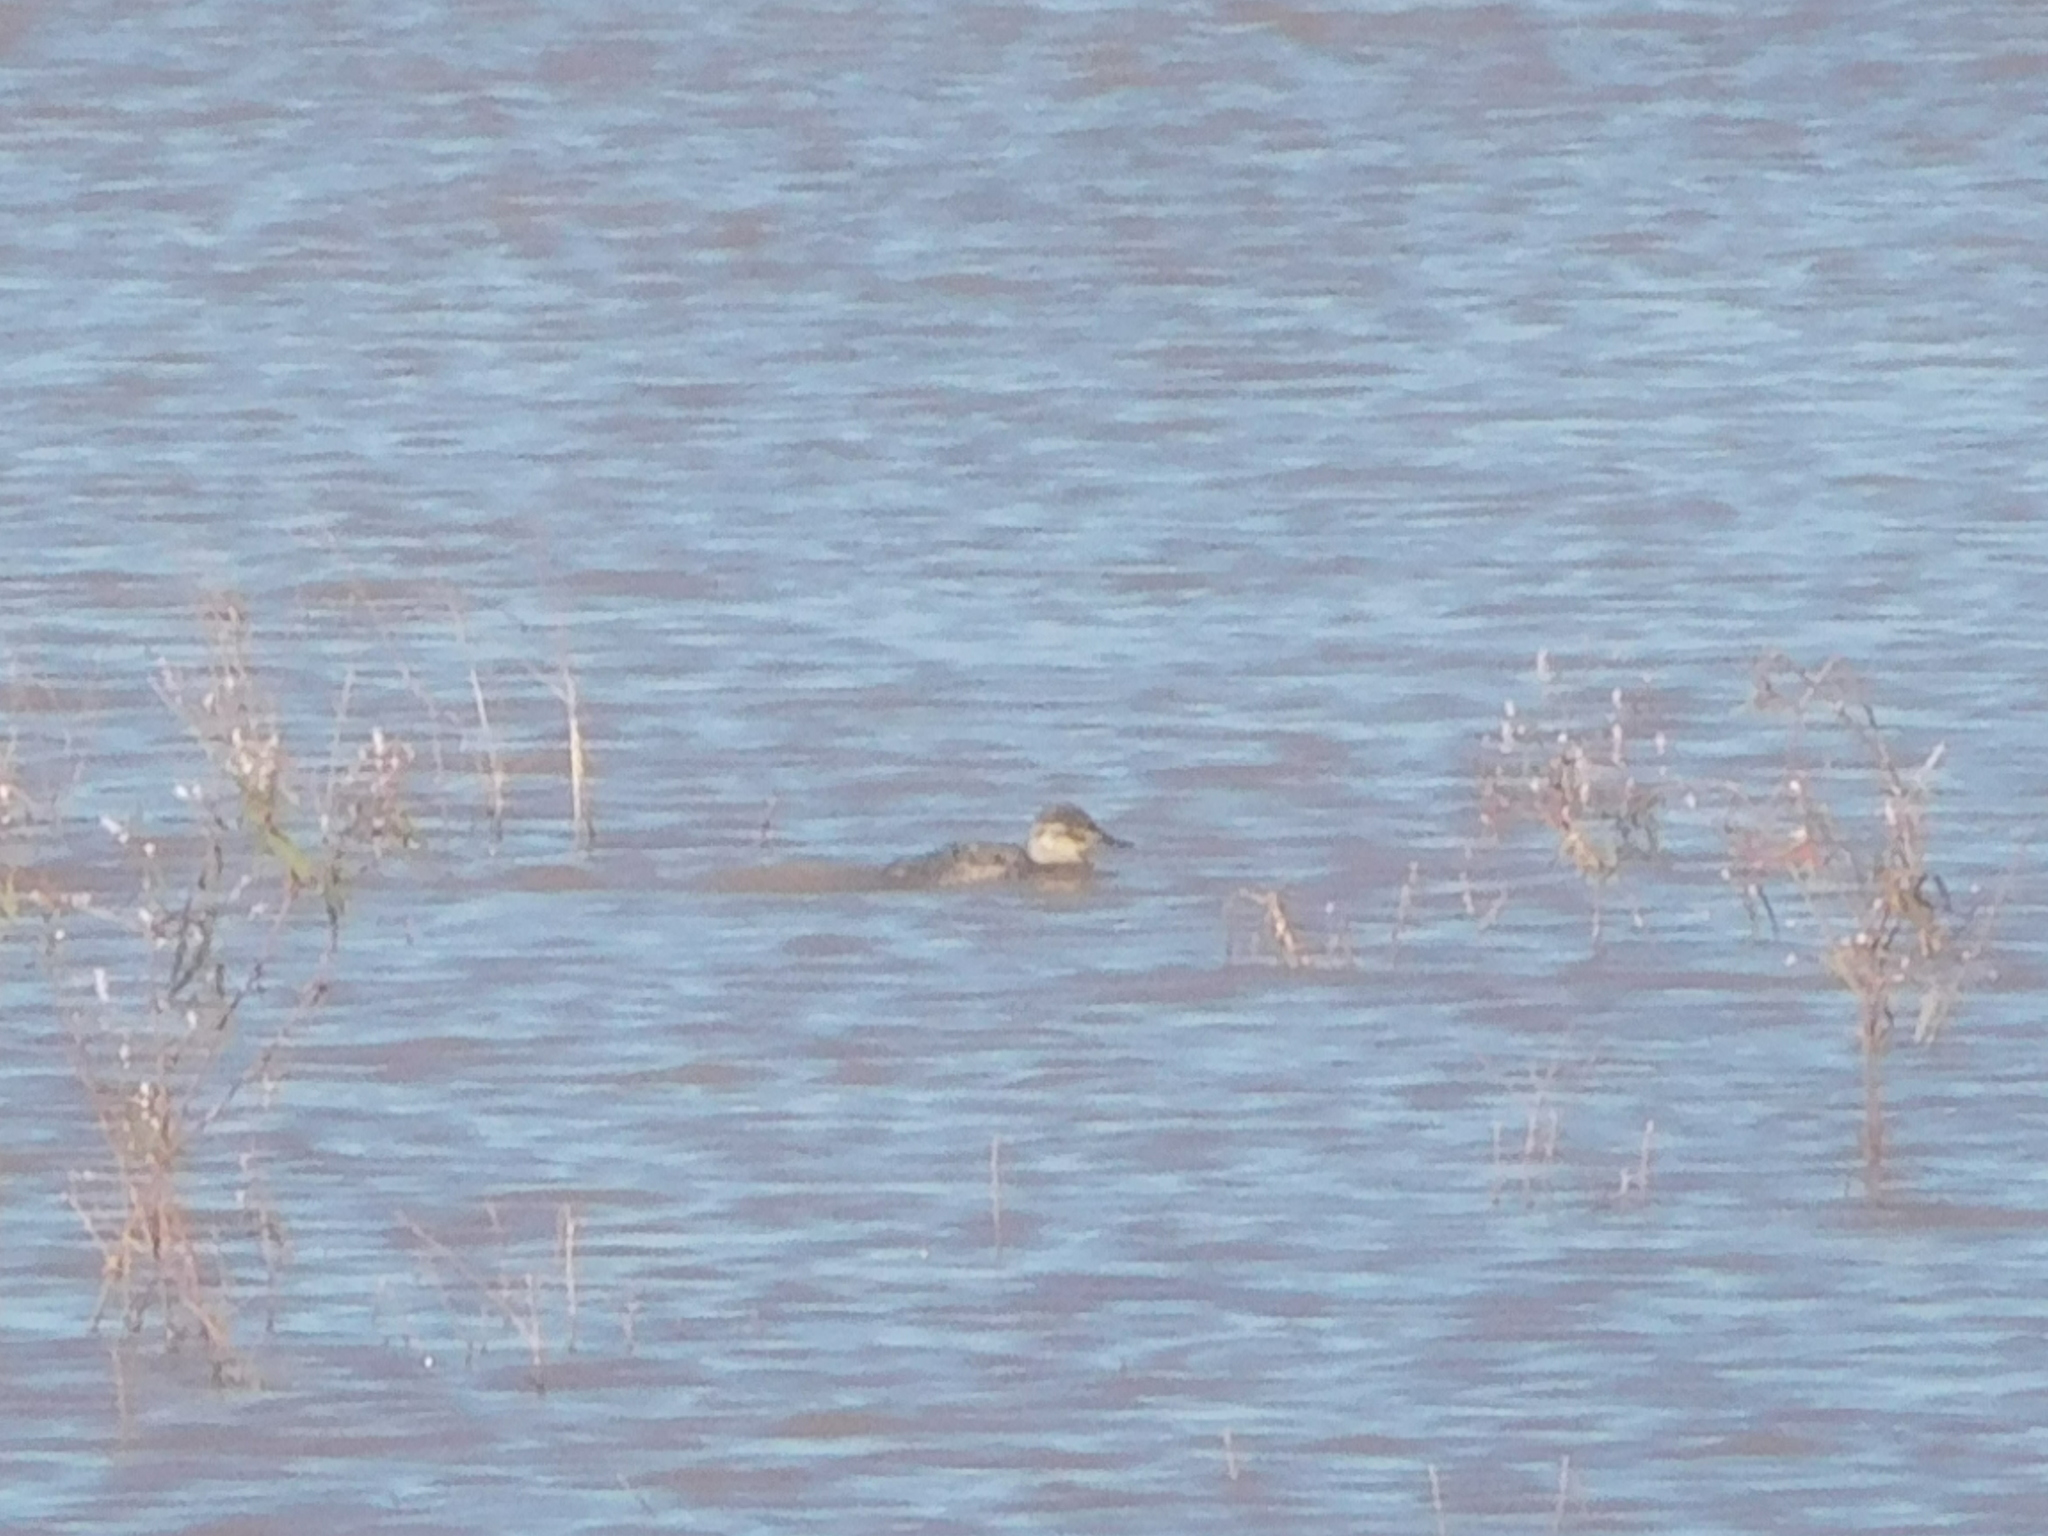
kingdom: Animalia
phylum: Chordata
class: Aves
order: Anseriformes
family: Anatidae
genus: Oxyura
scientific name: Oxyura jamaicensis
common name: Ruddy duck
